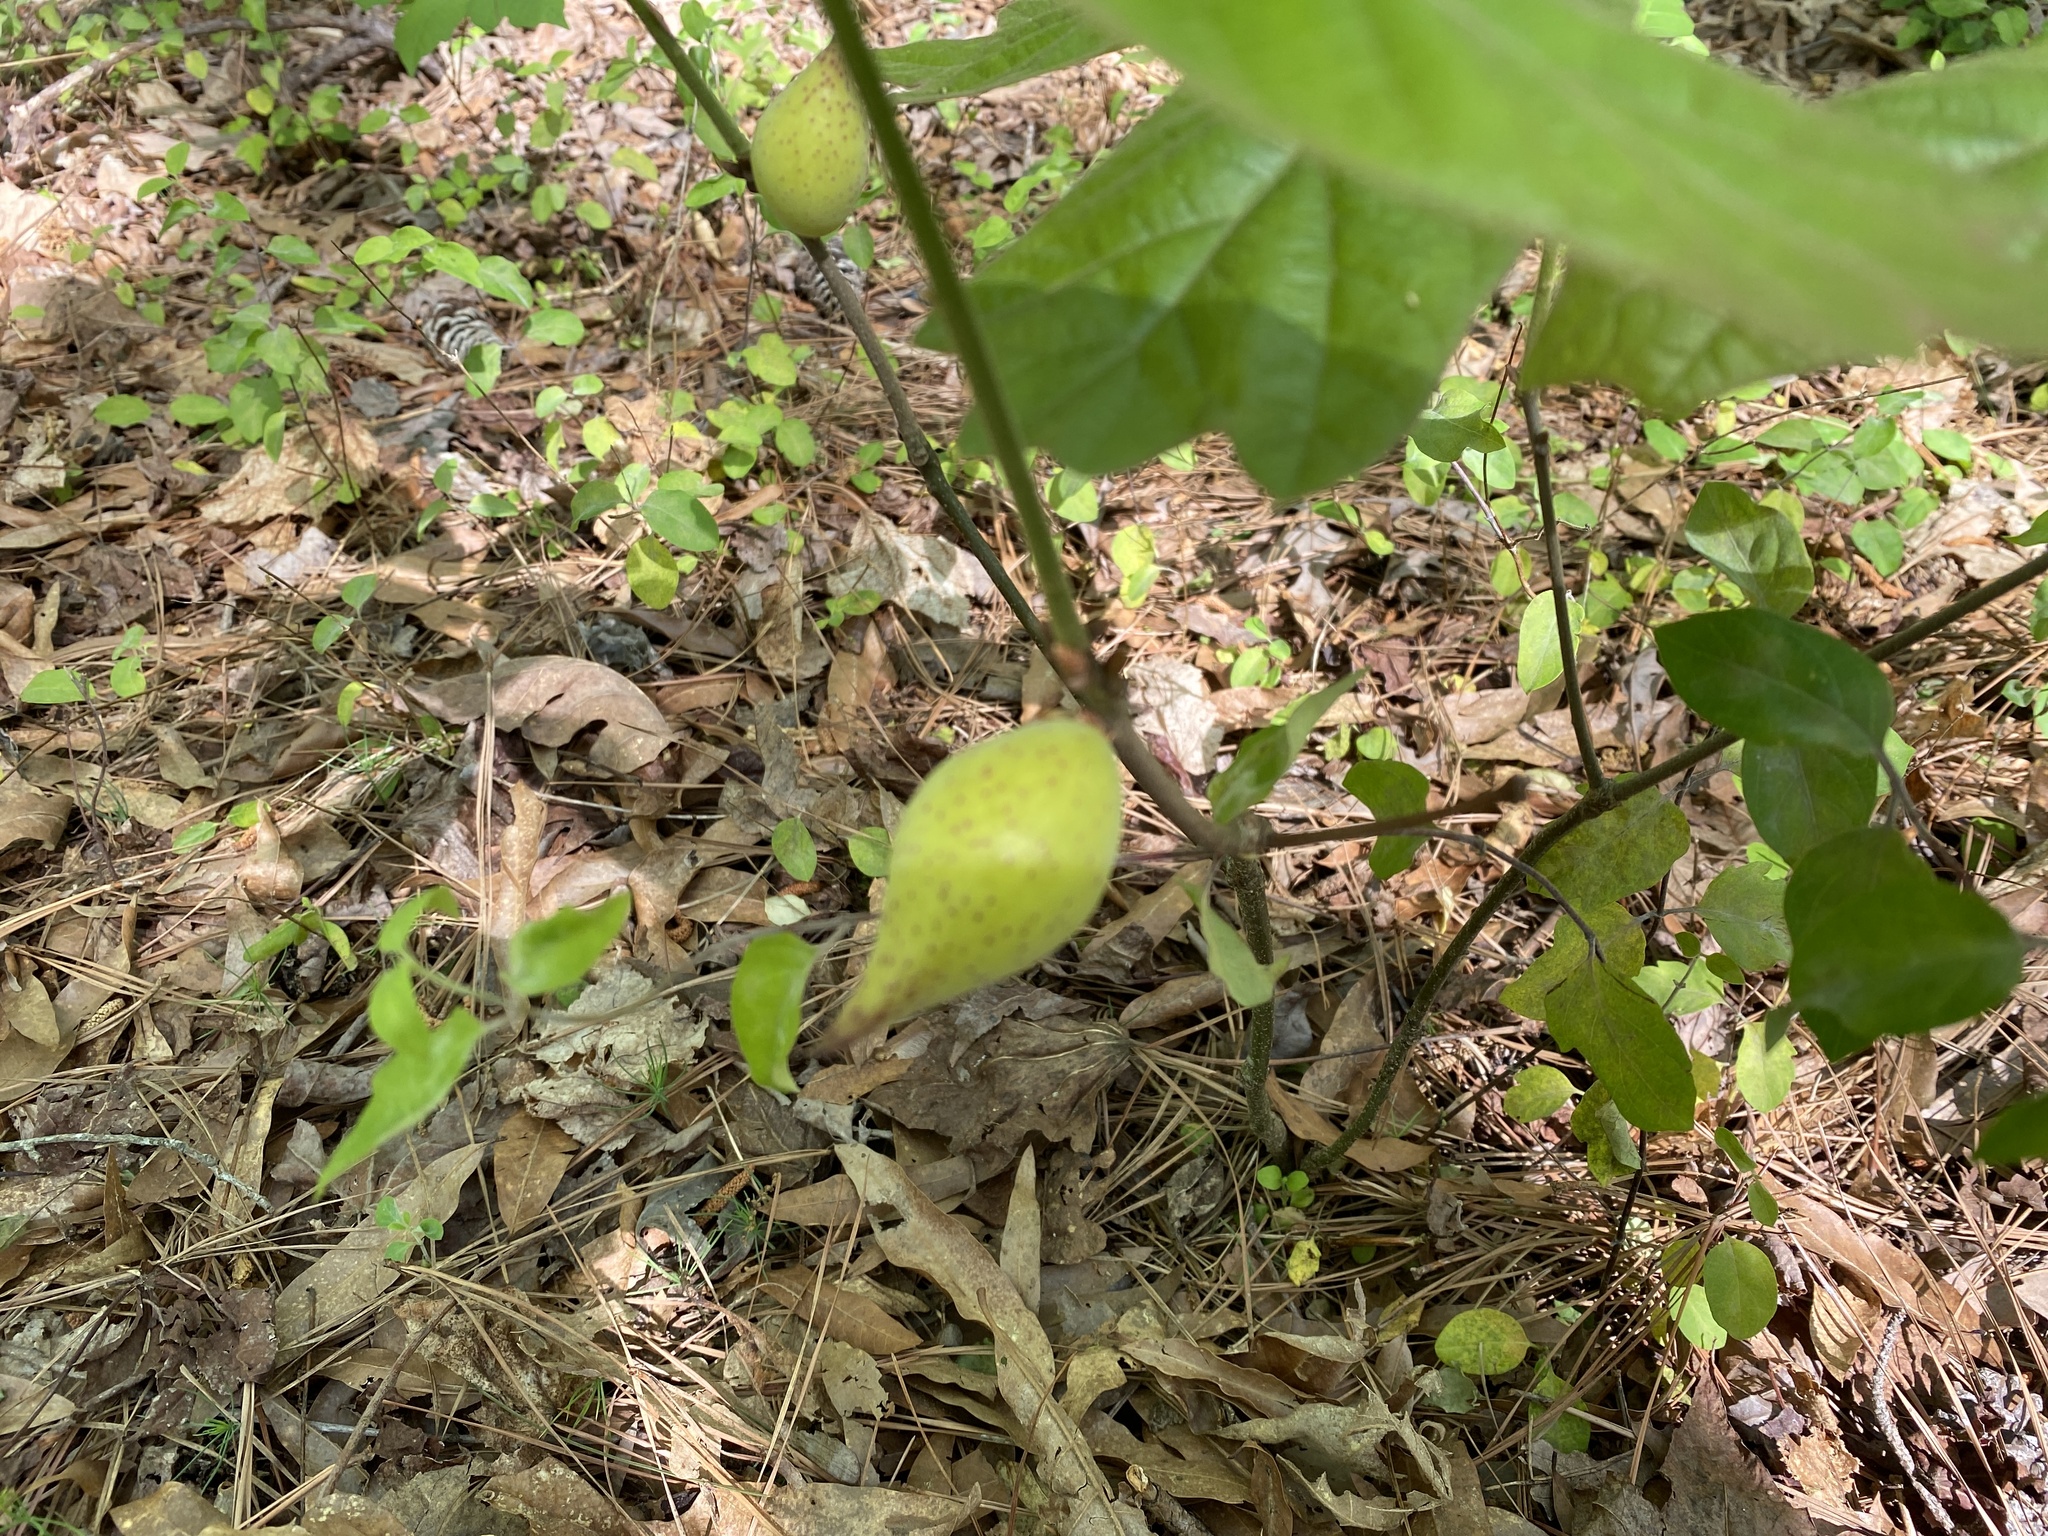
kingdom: Animalia
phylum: Arthropoda
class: Insecta
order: Hymenoptera
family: Cynipidae
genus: Amphibolips
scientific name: Amphibolips
